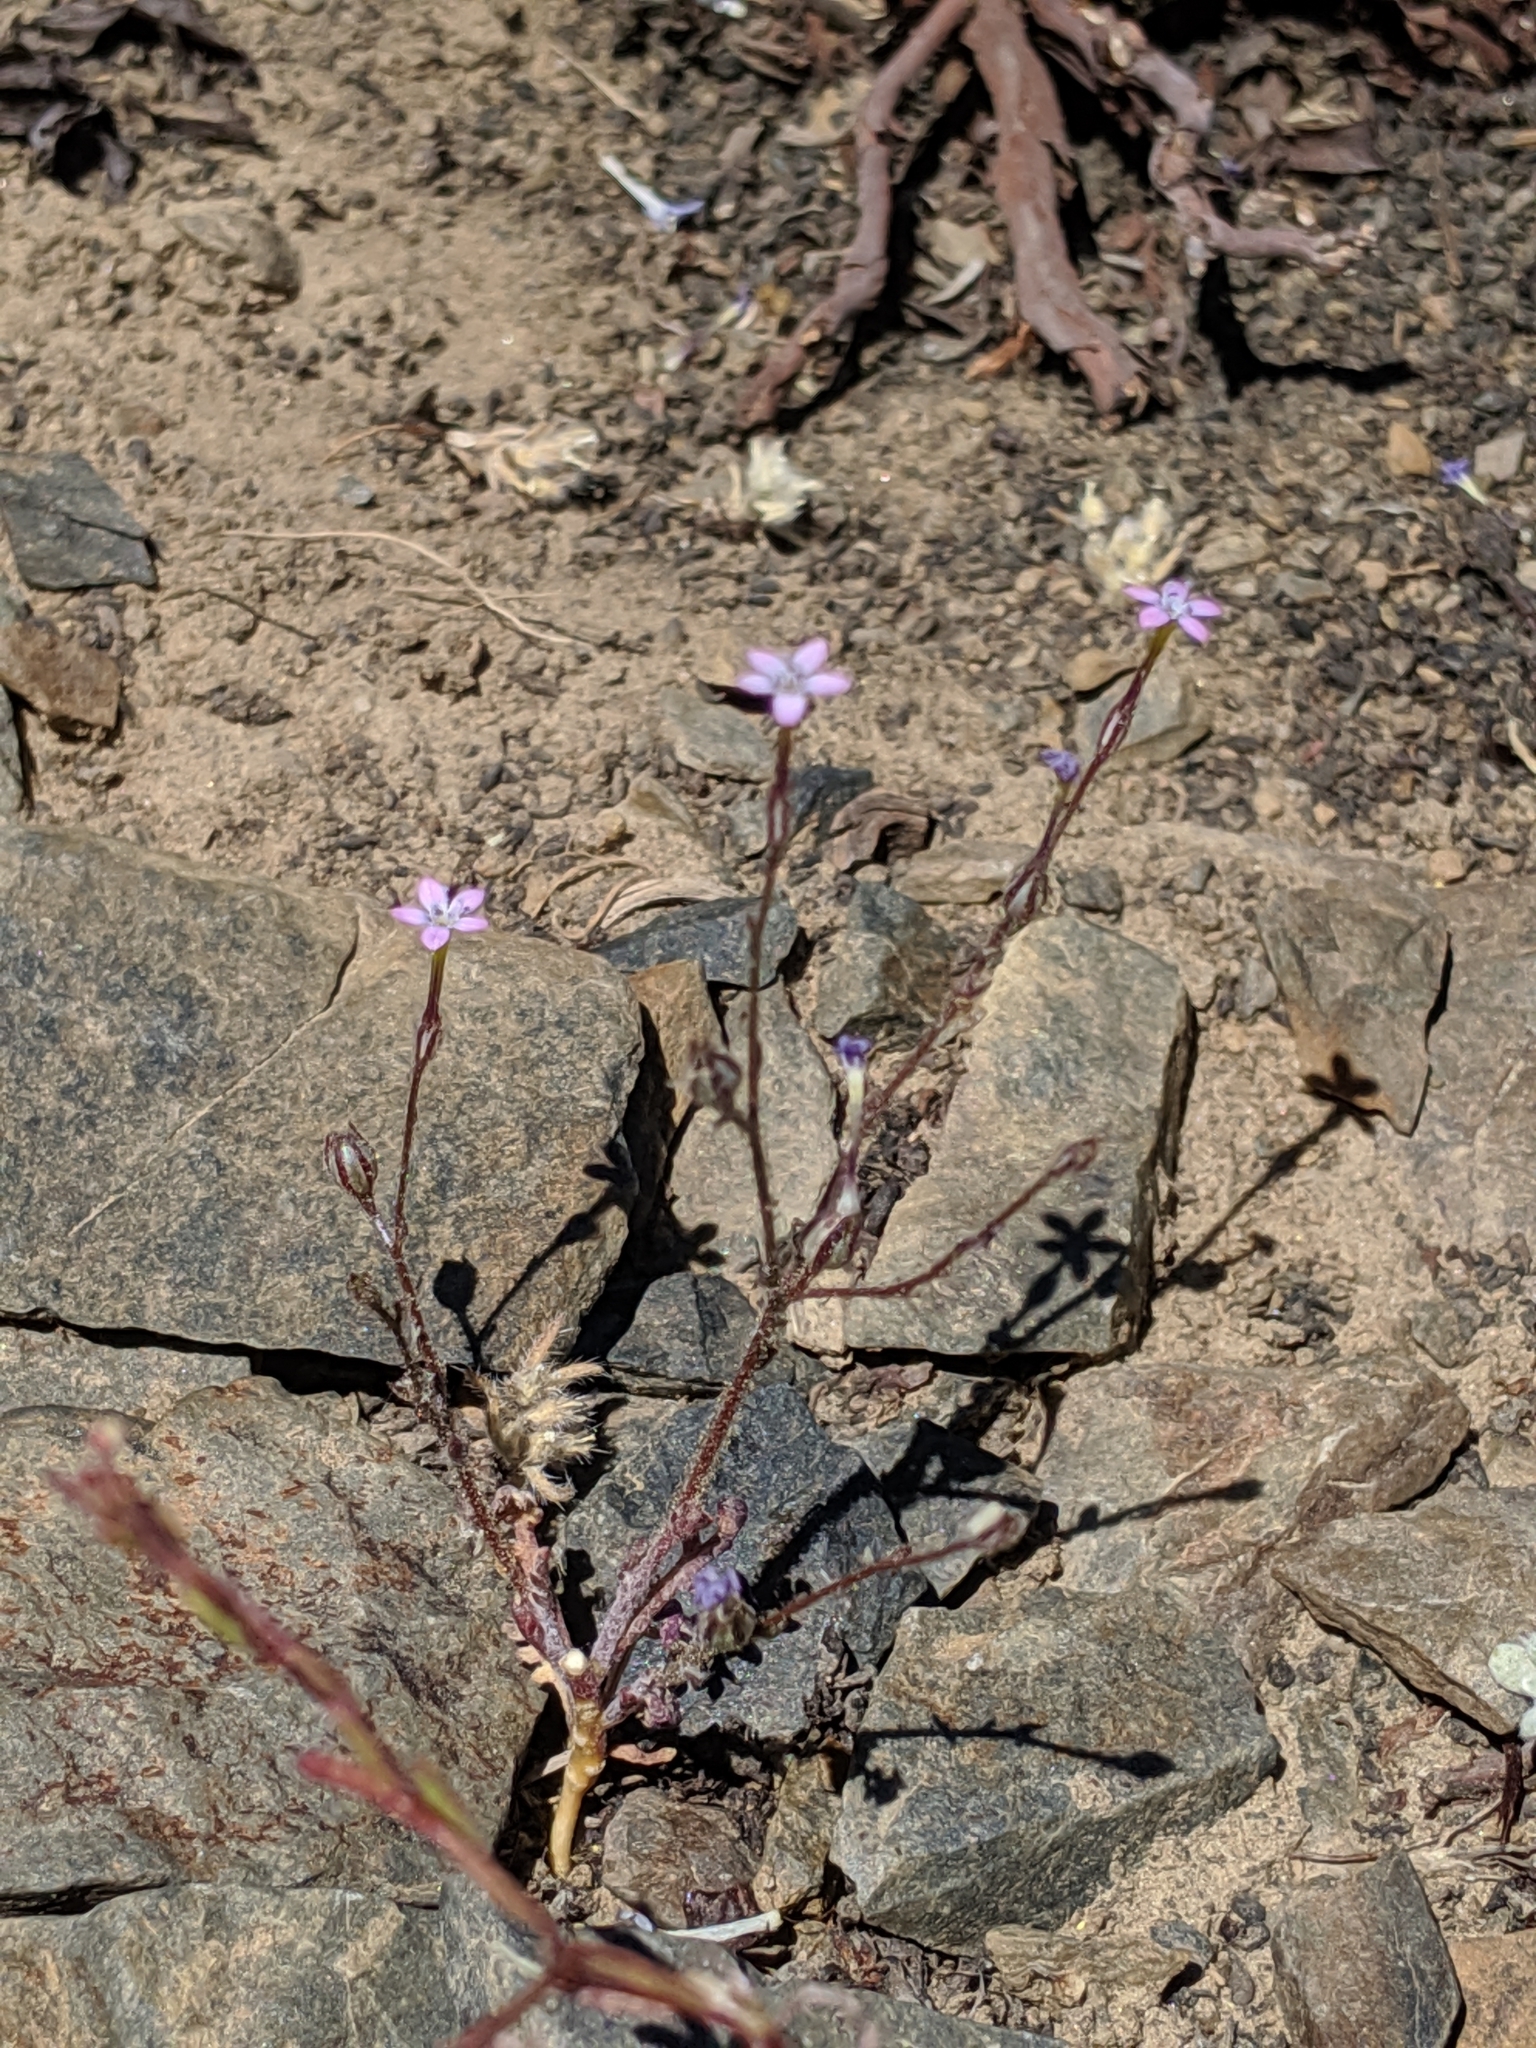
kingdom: Plantae
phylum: Tracheophyta
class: Magnoliopsida
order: Ericales
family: Polemoniaceae
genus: Gilia
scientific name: Gilia ophthalmoides
